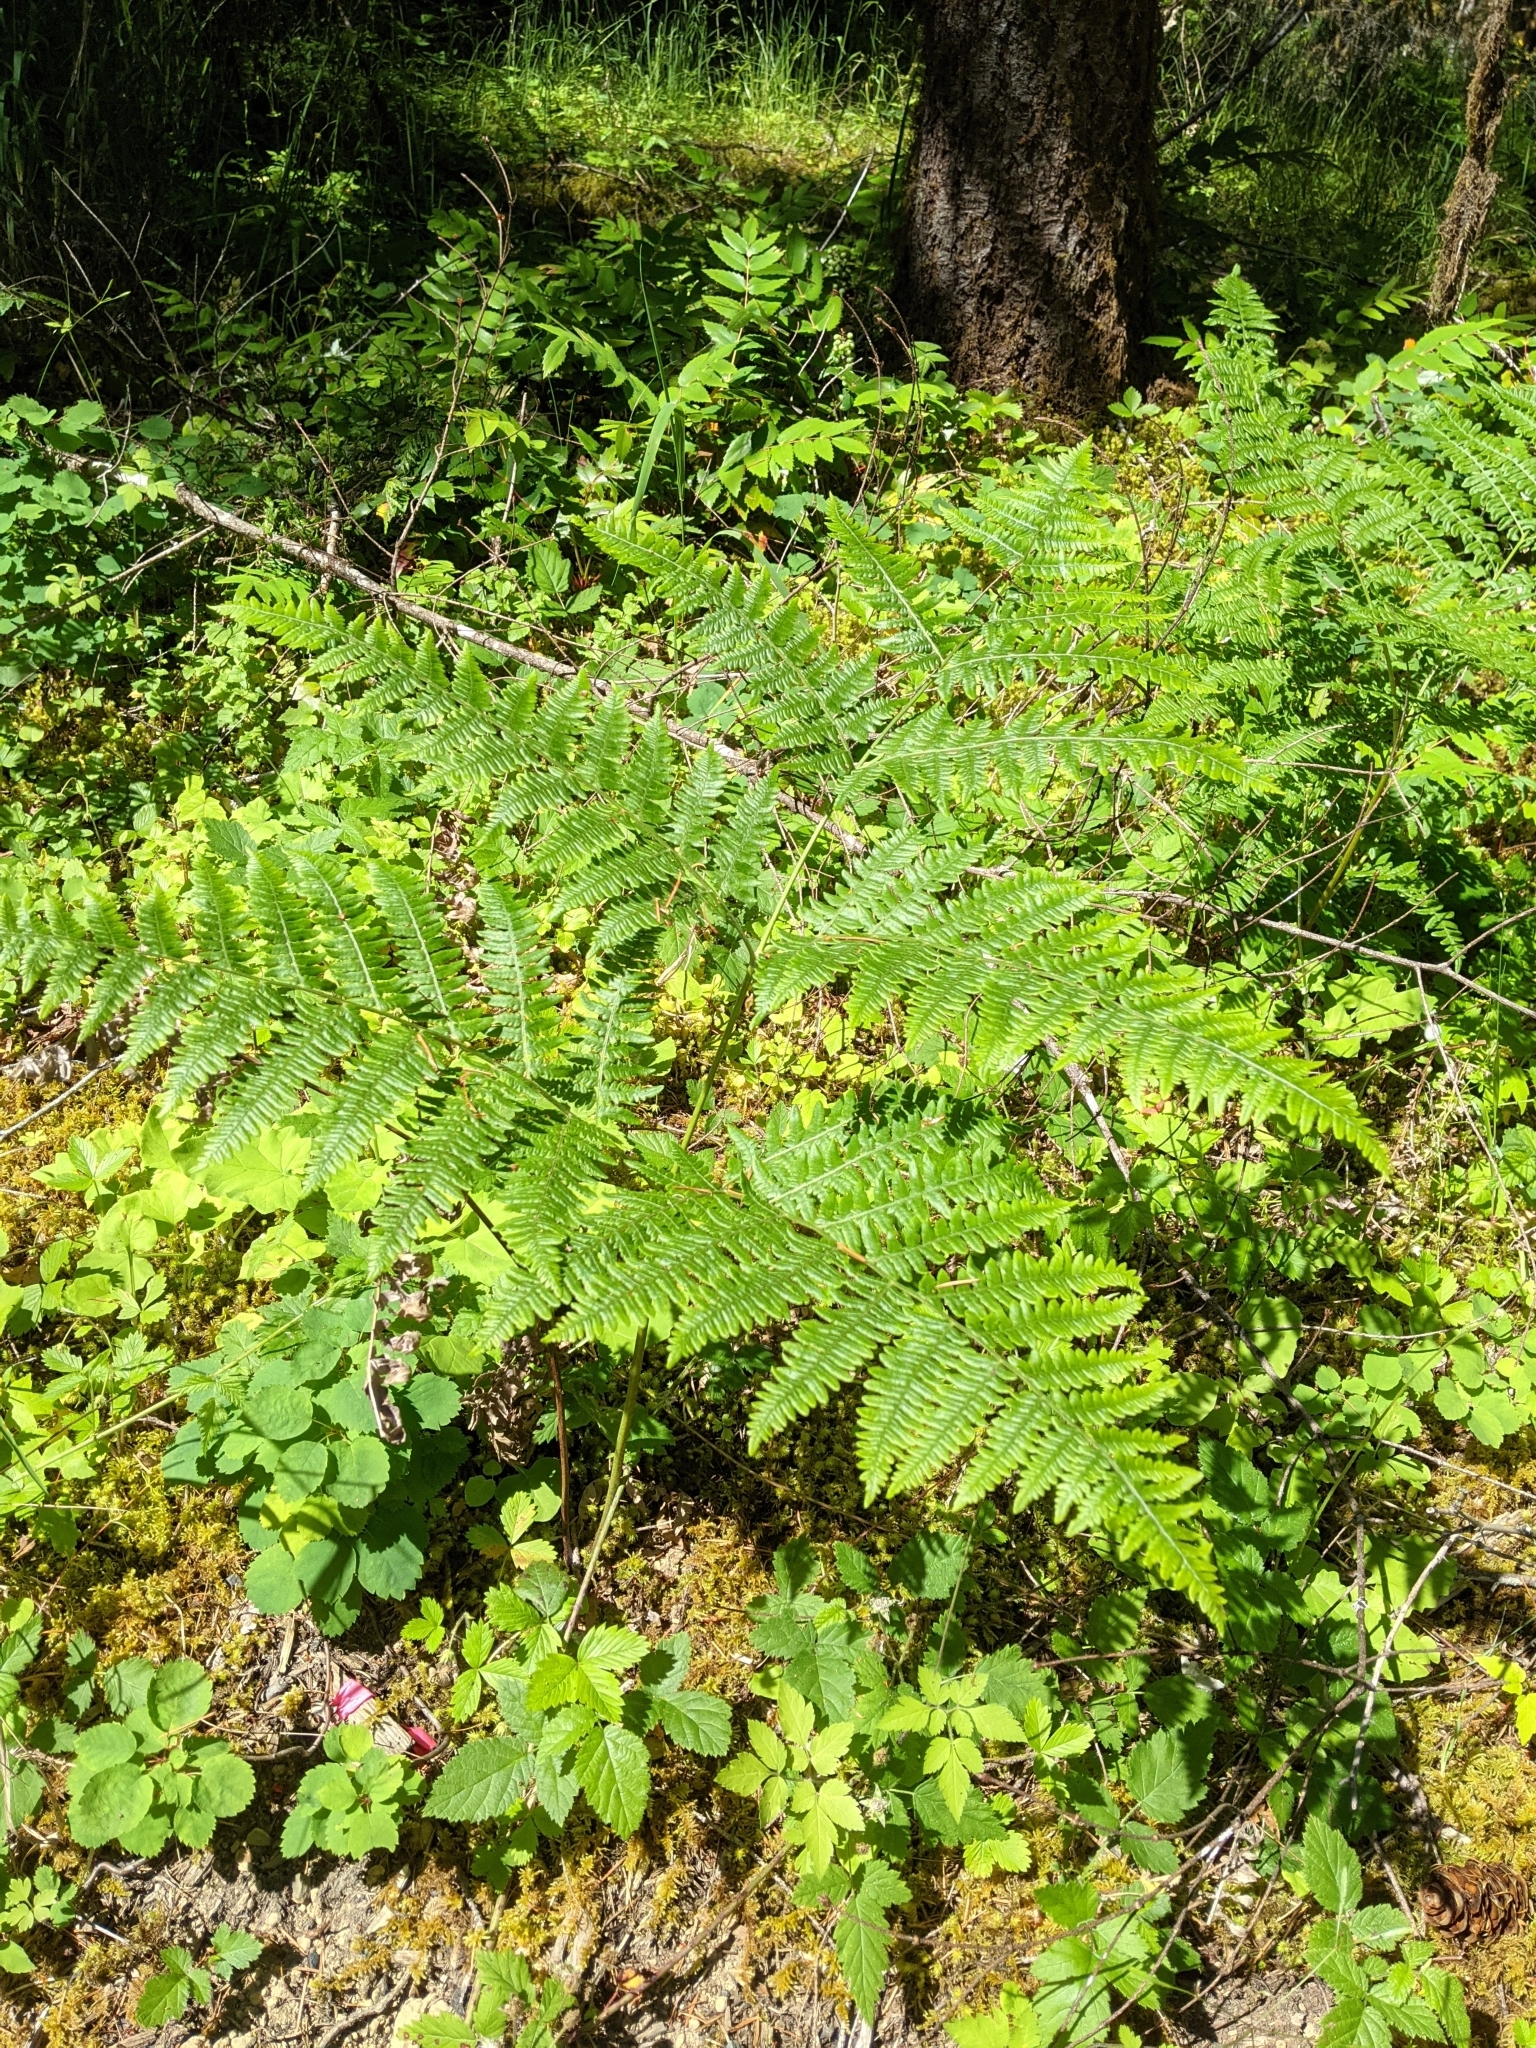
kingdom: Plantae
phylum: Tracheophyta
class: Polypodiopsida
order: Polypodiales
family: Dennstaedtiaceae
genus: Pteridium
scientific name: Pteridium aquilinum
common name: Bracken
